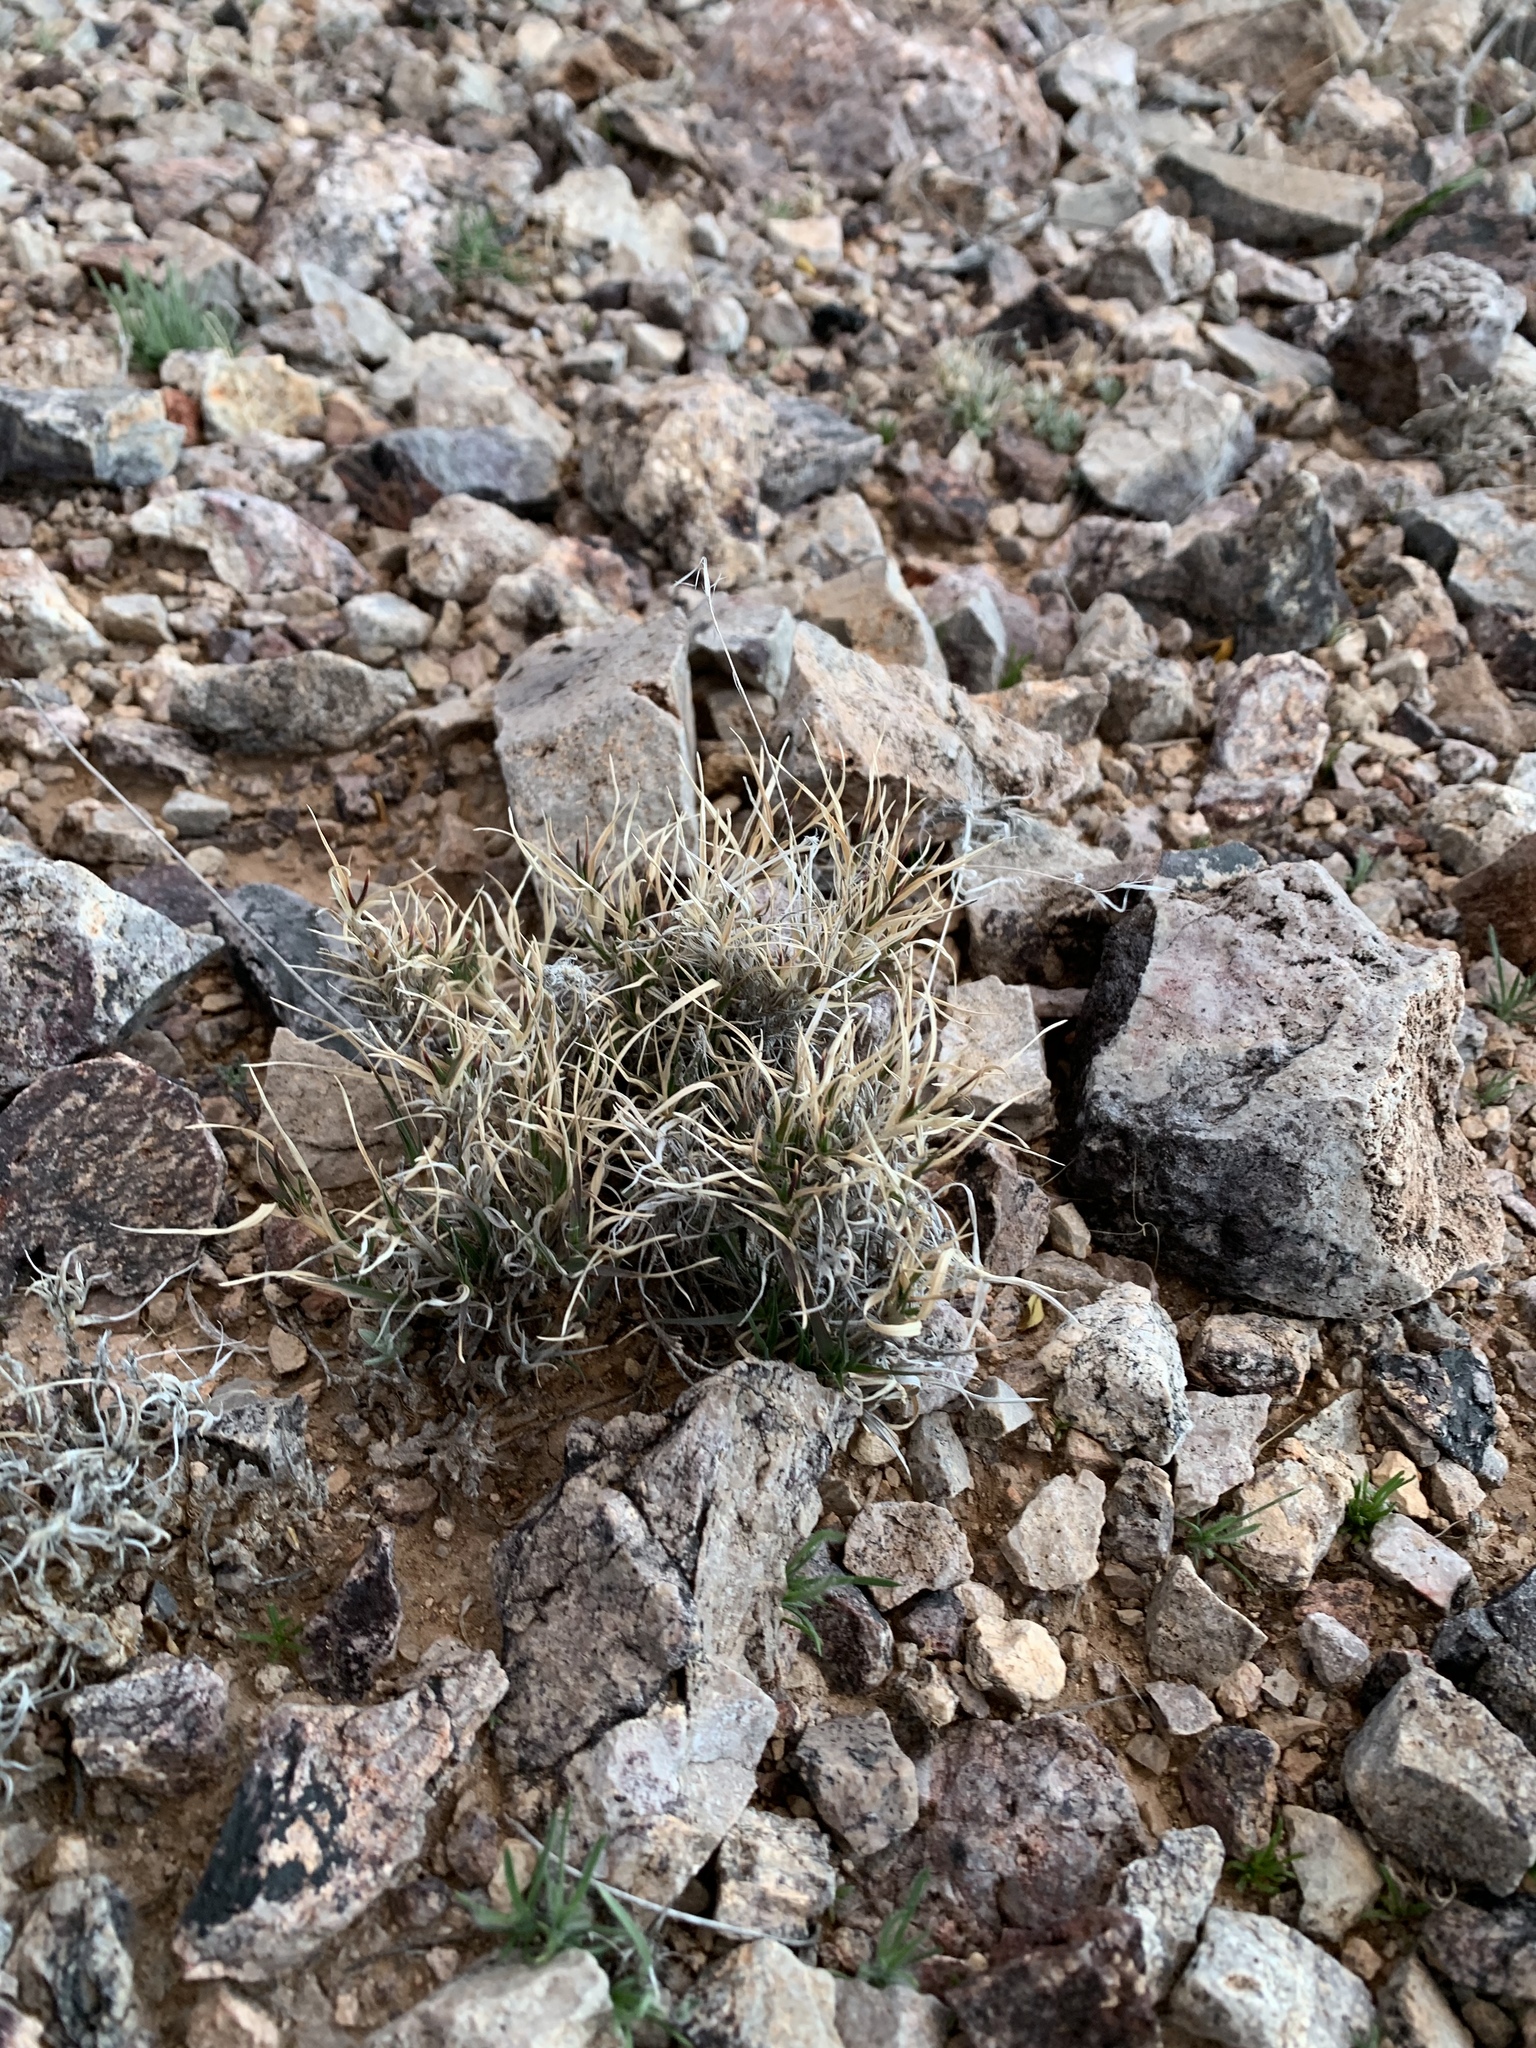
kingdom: Plantae
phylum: Tracheophyta
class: Liliopsida
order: Poales
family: Poaceae
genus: Dasyochloa
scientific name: Dasyochloa pulchella
